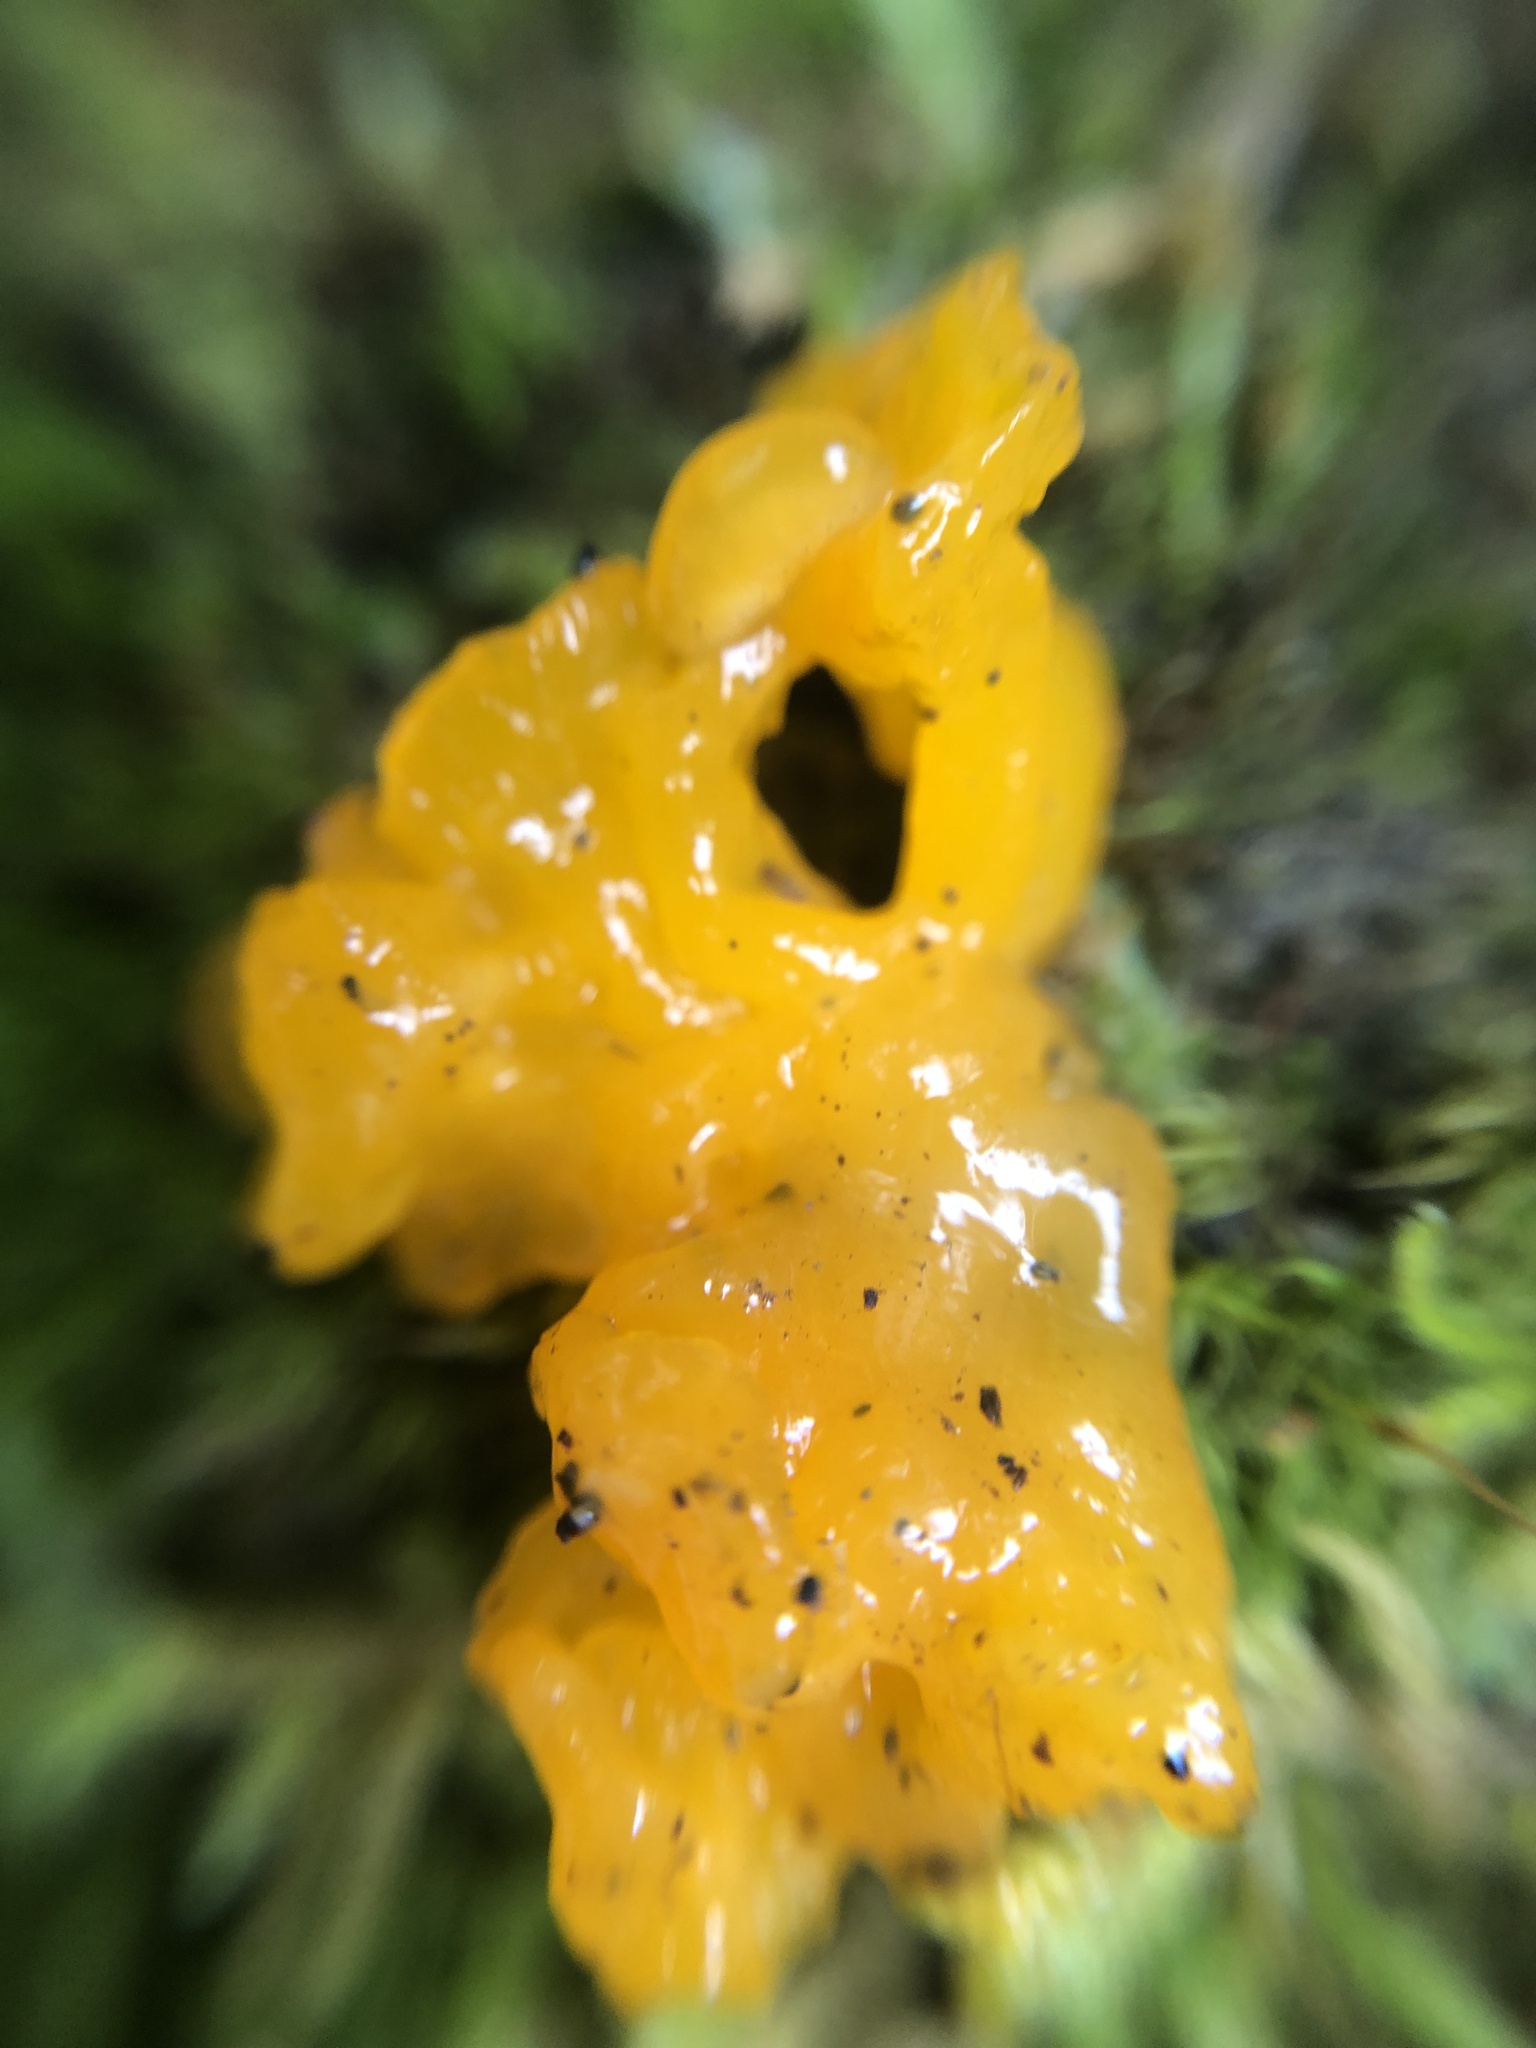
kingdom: Fungi
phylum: Basidiomycota
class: Dacrymycetes
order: Dacrymycetales
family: Dacrymycetaceae
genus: Dacrymyces
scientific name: Dacrymyces chrysospermus
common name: Orange jelly spot
